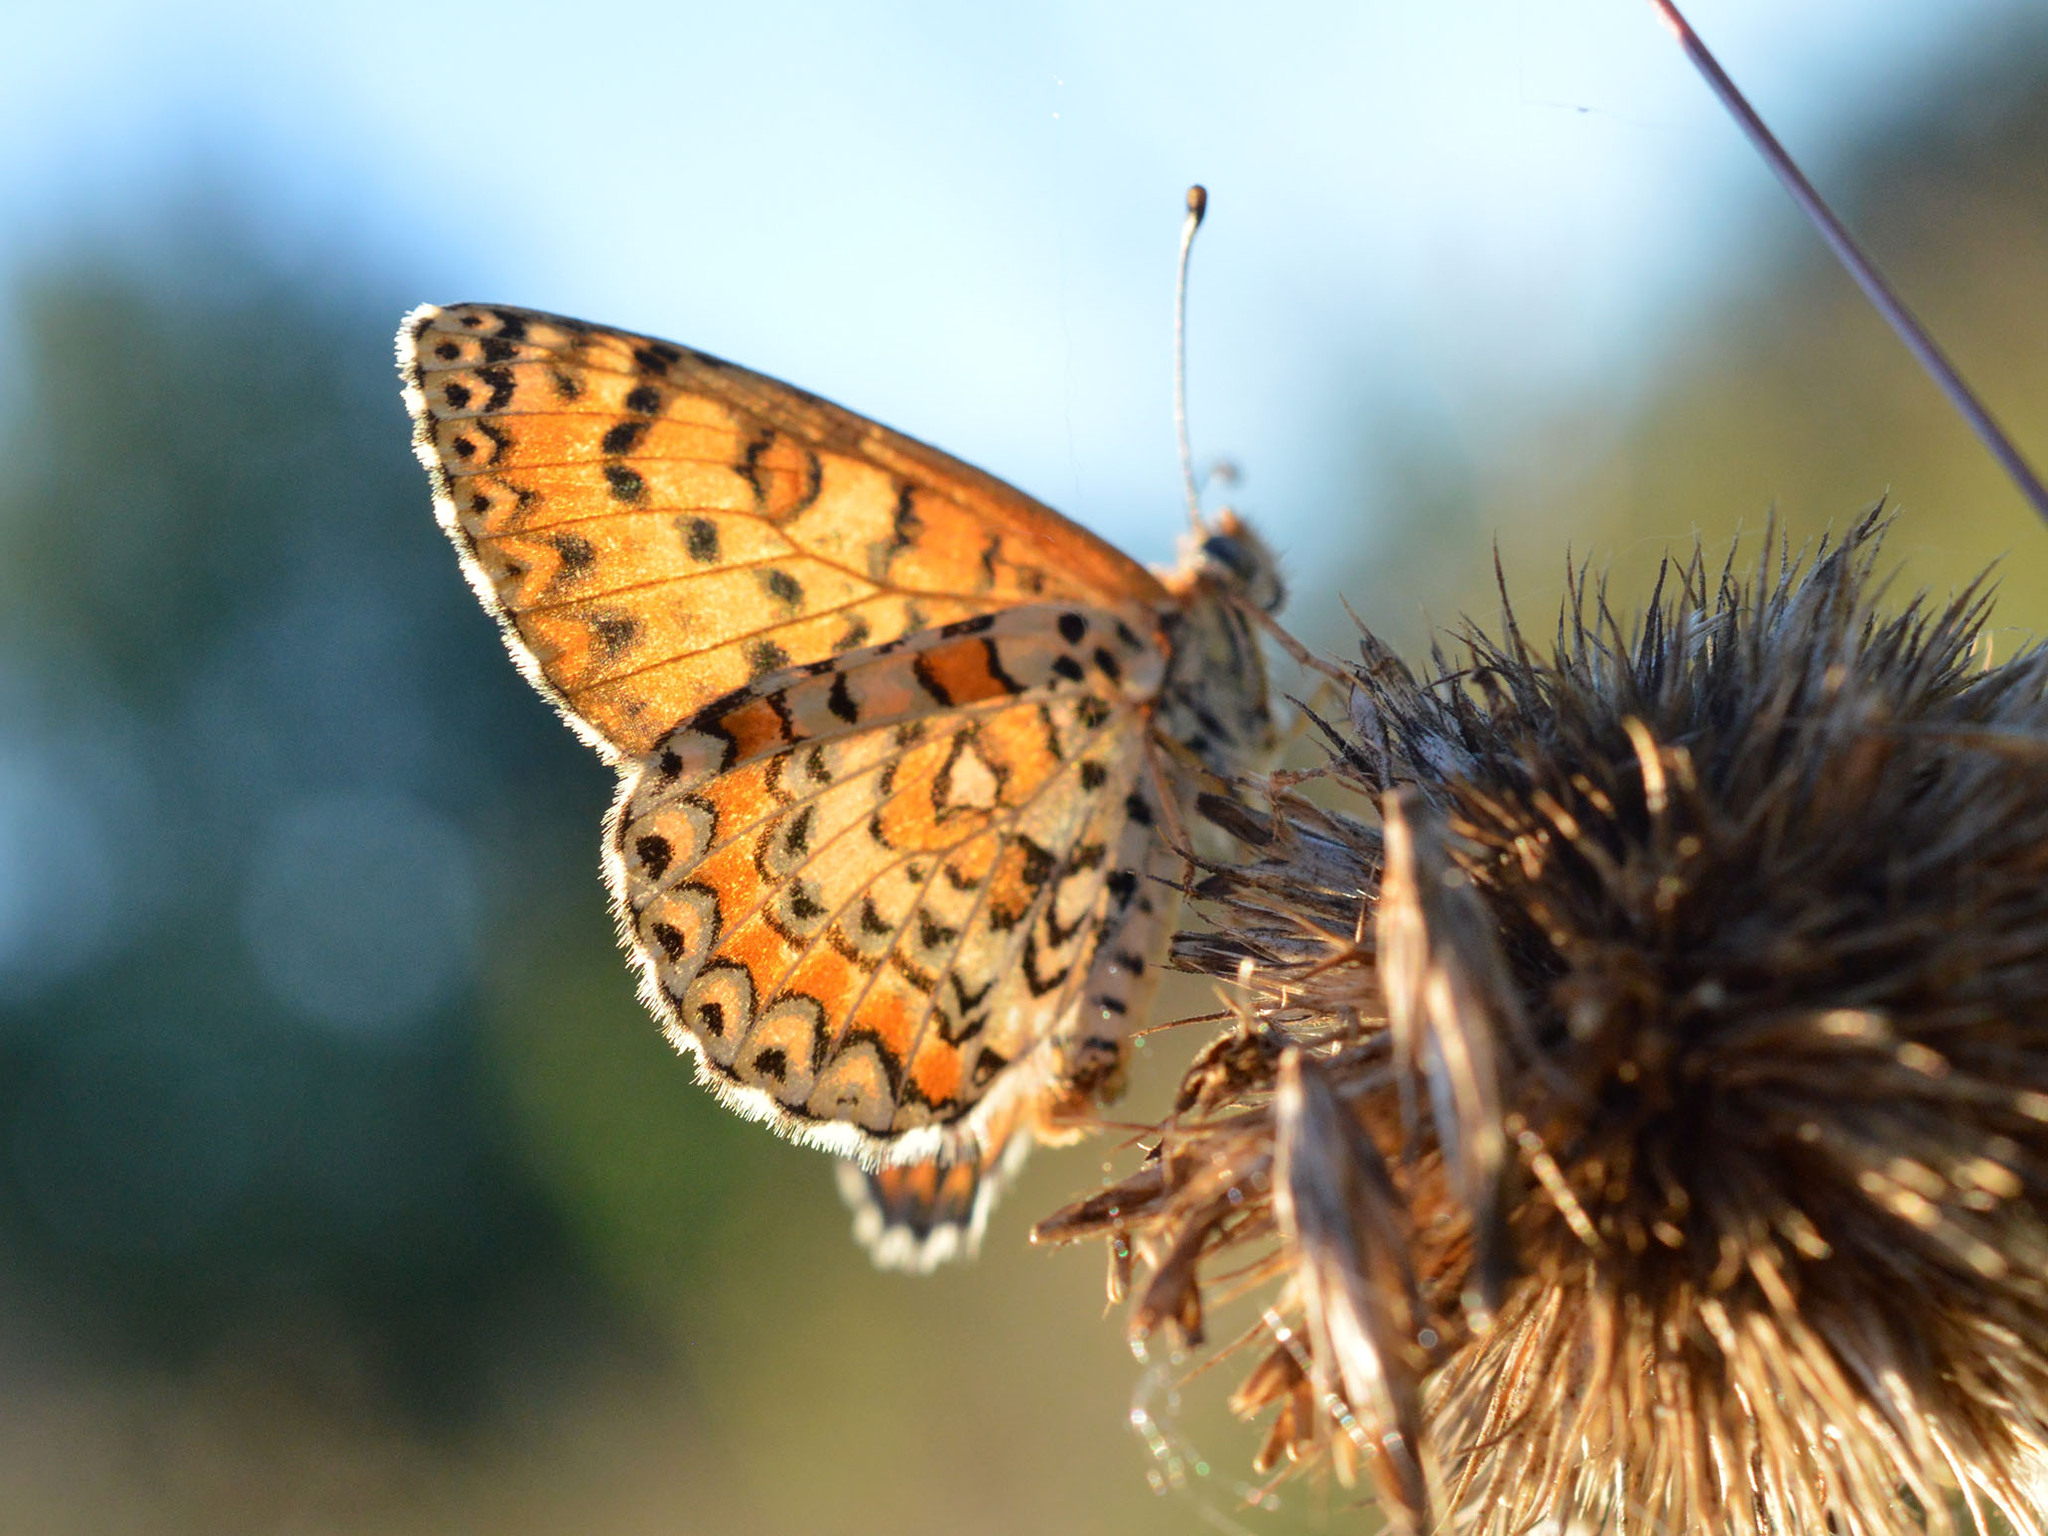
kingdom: Animalia
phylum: Arthropoda
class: Insecta
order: Lepidoptera
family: Nymphalidae
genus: Melitaea
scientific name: Melitaea trivia
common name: Lesser spotted fritillary
